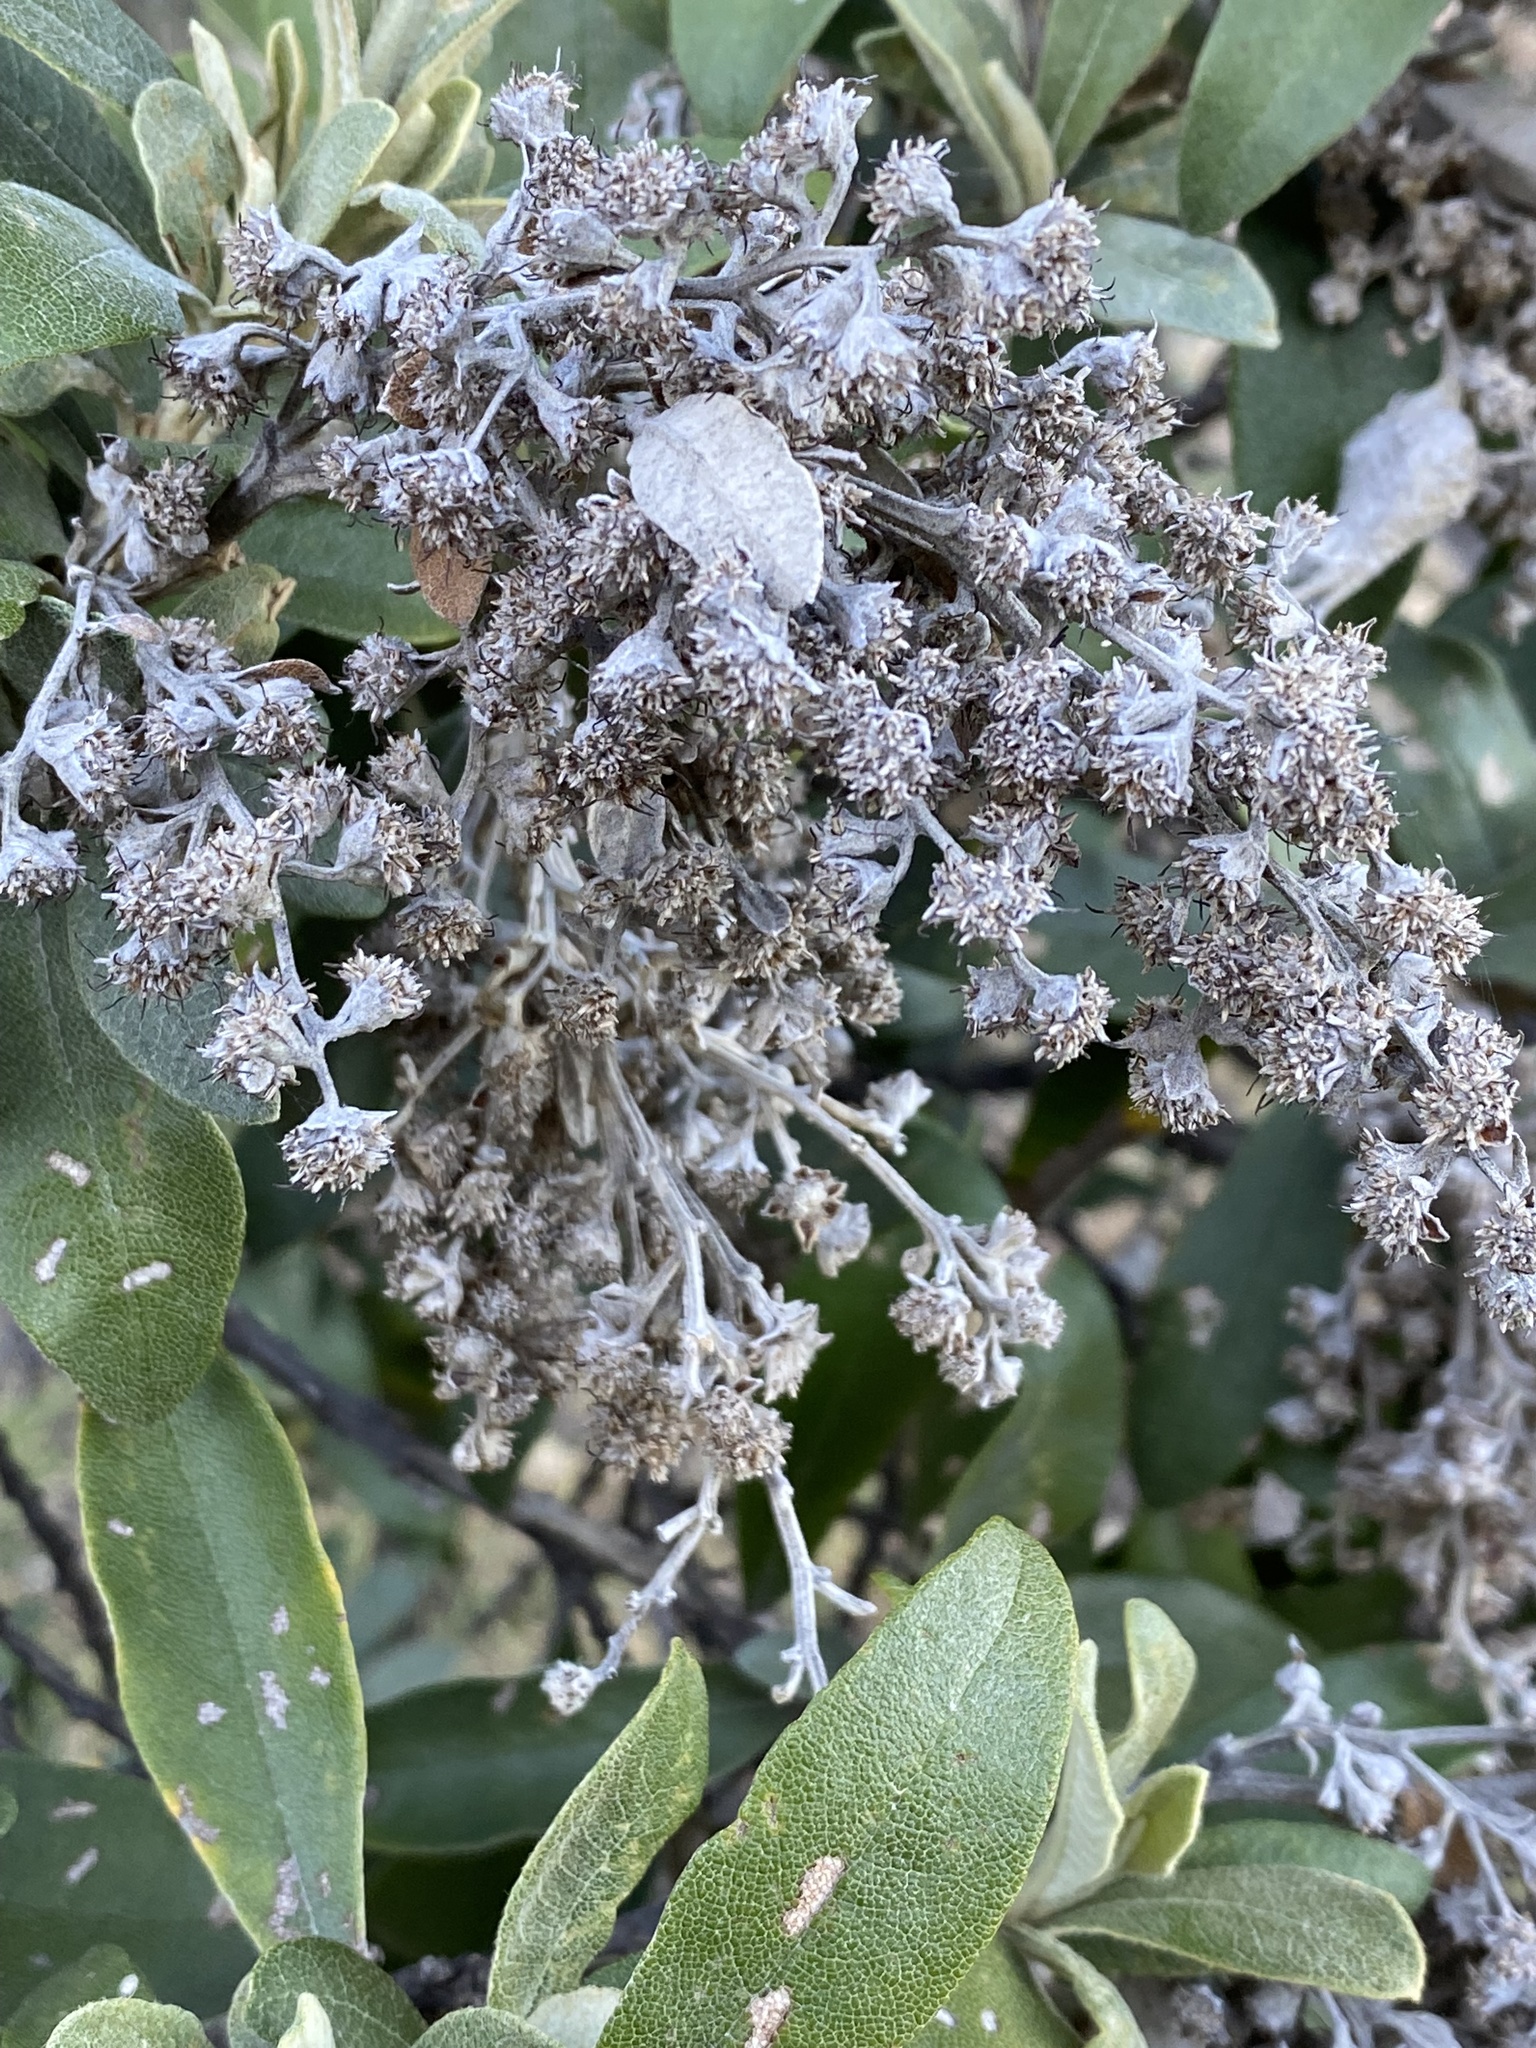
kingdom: Plantae
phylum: Tracheophyta
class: Magnoliopsida
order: Asterales
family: Asteraceae
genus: Tarchonanthus
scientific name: Tarchonanthus littoralis
